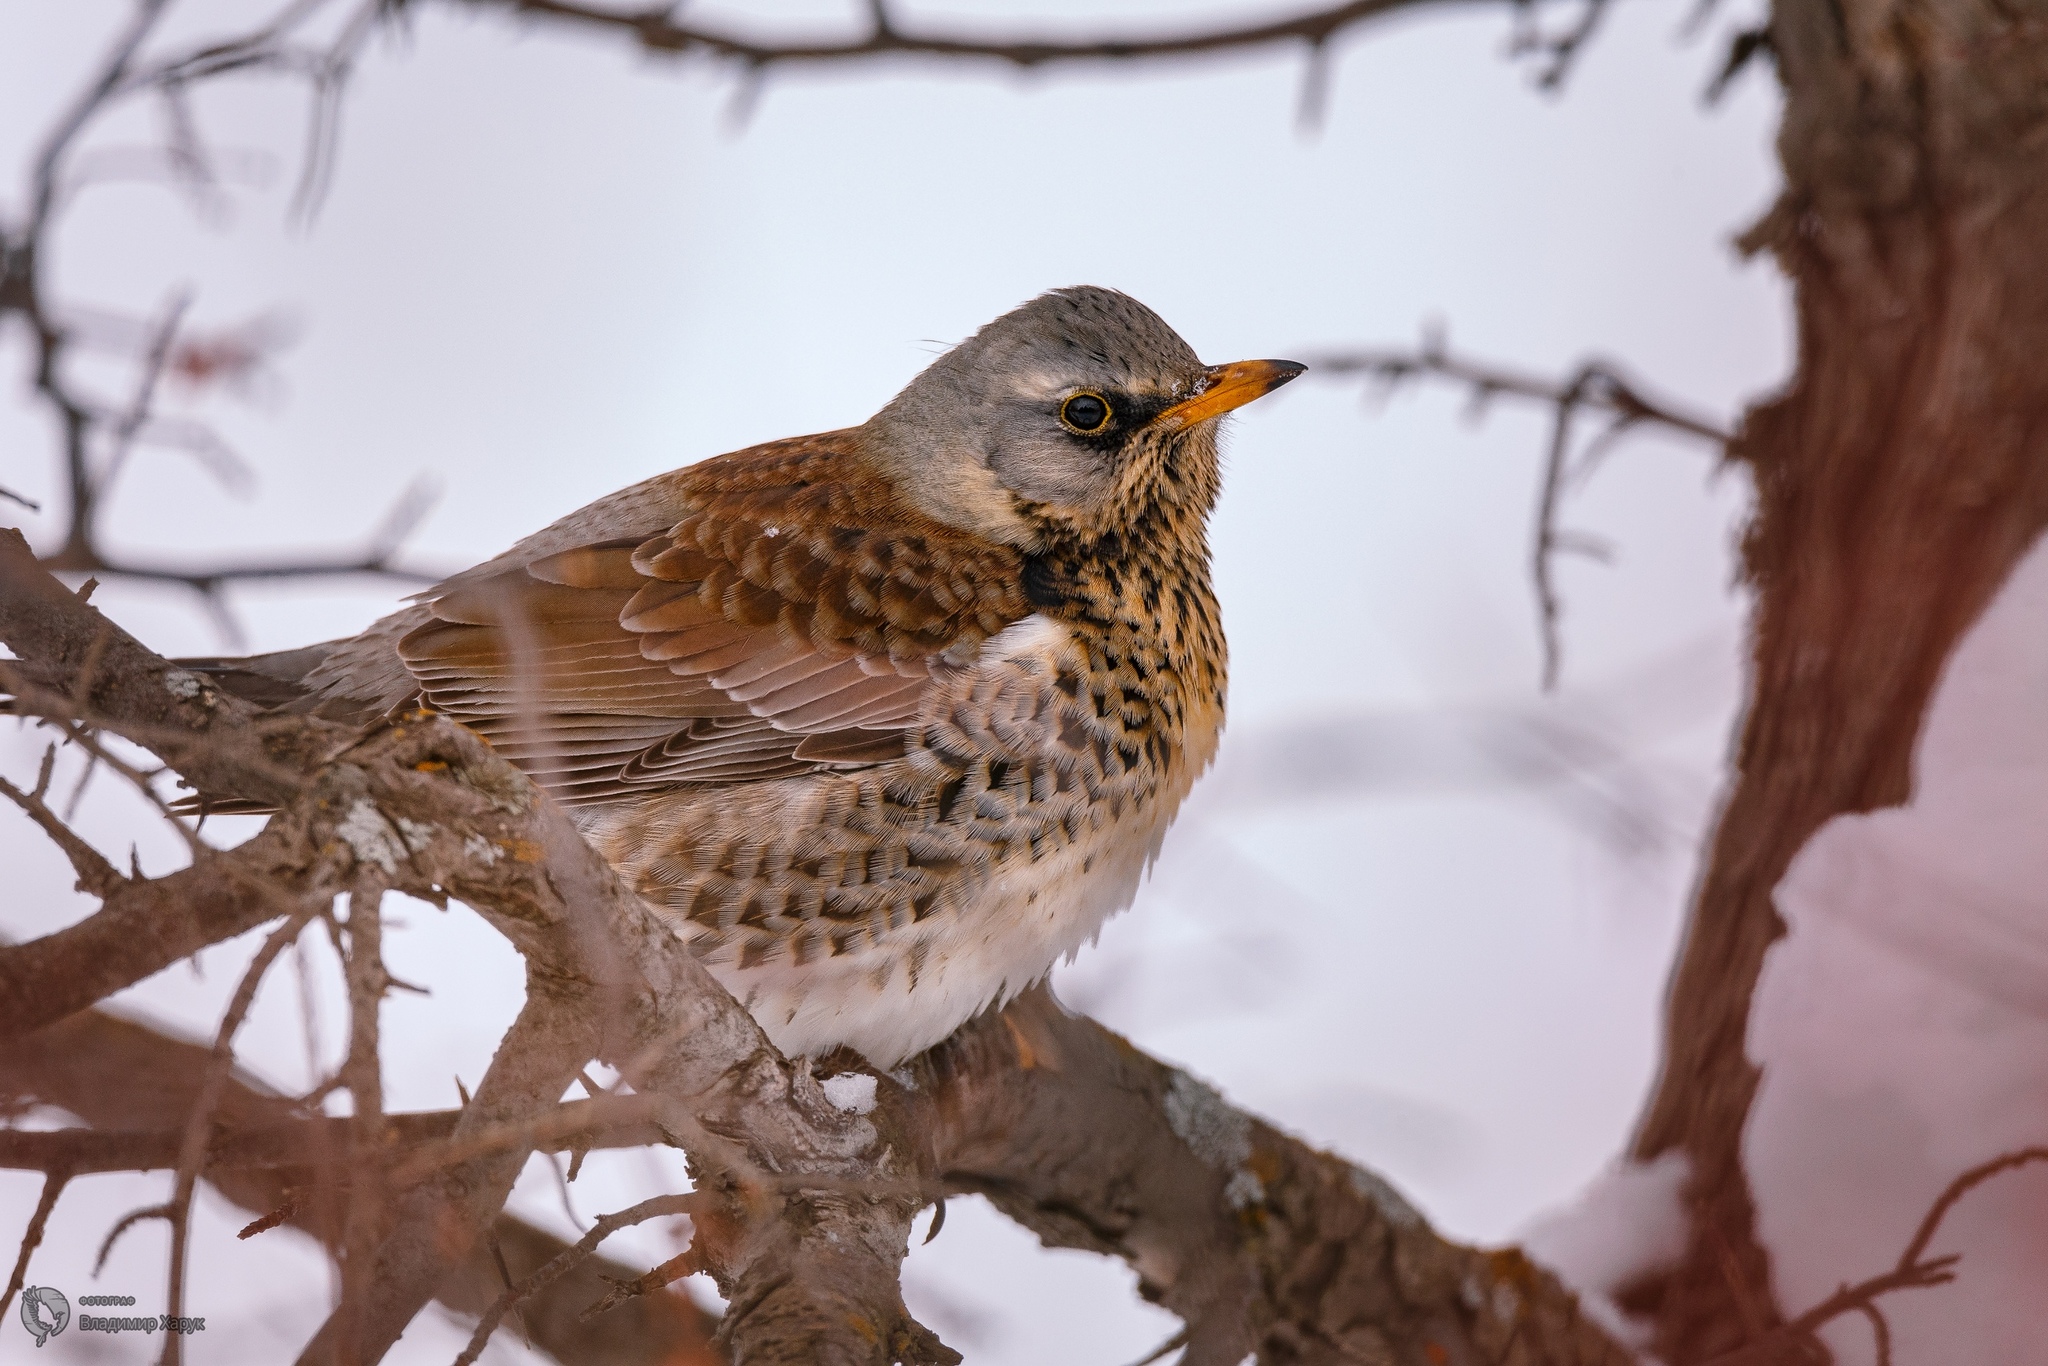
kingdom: Animalia
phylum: Chordata
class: Aves
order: Passeriformes
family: Turdidae
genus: Turdus
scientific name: Turdus pilaris
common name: Fieldfare
